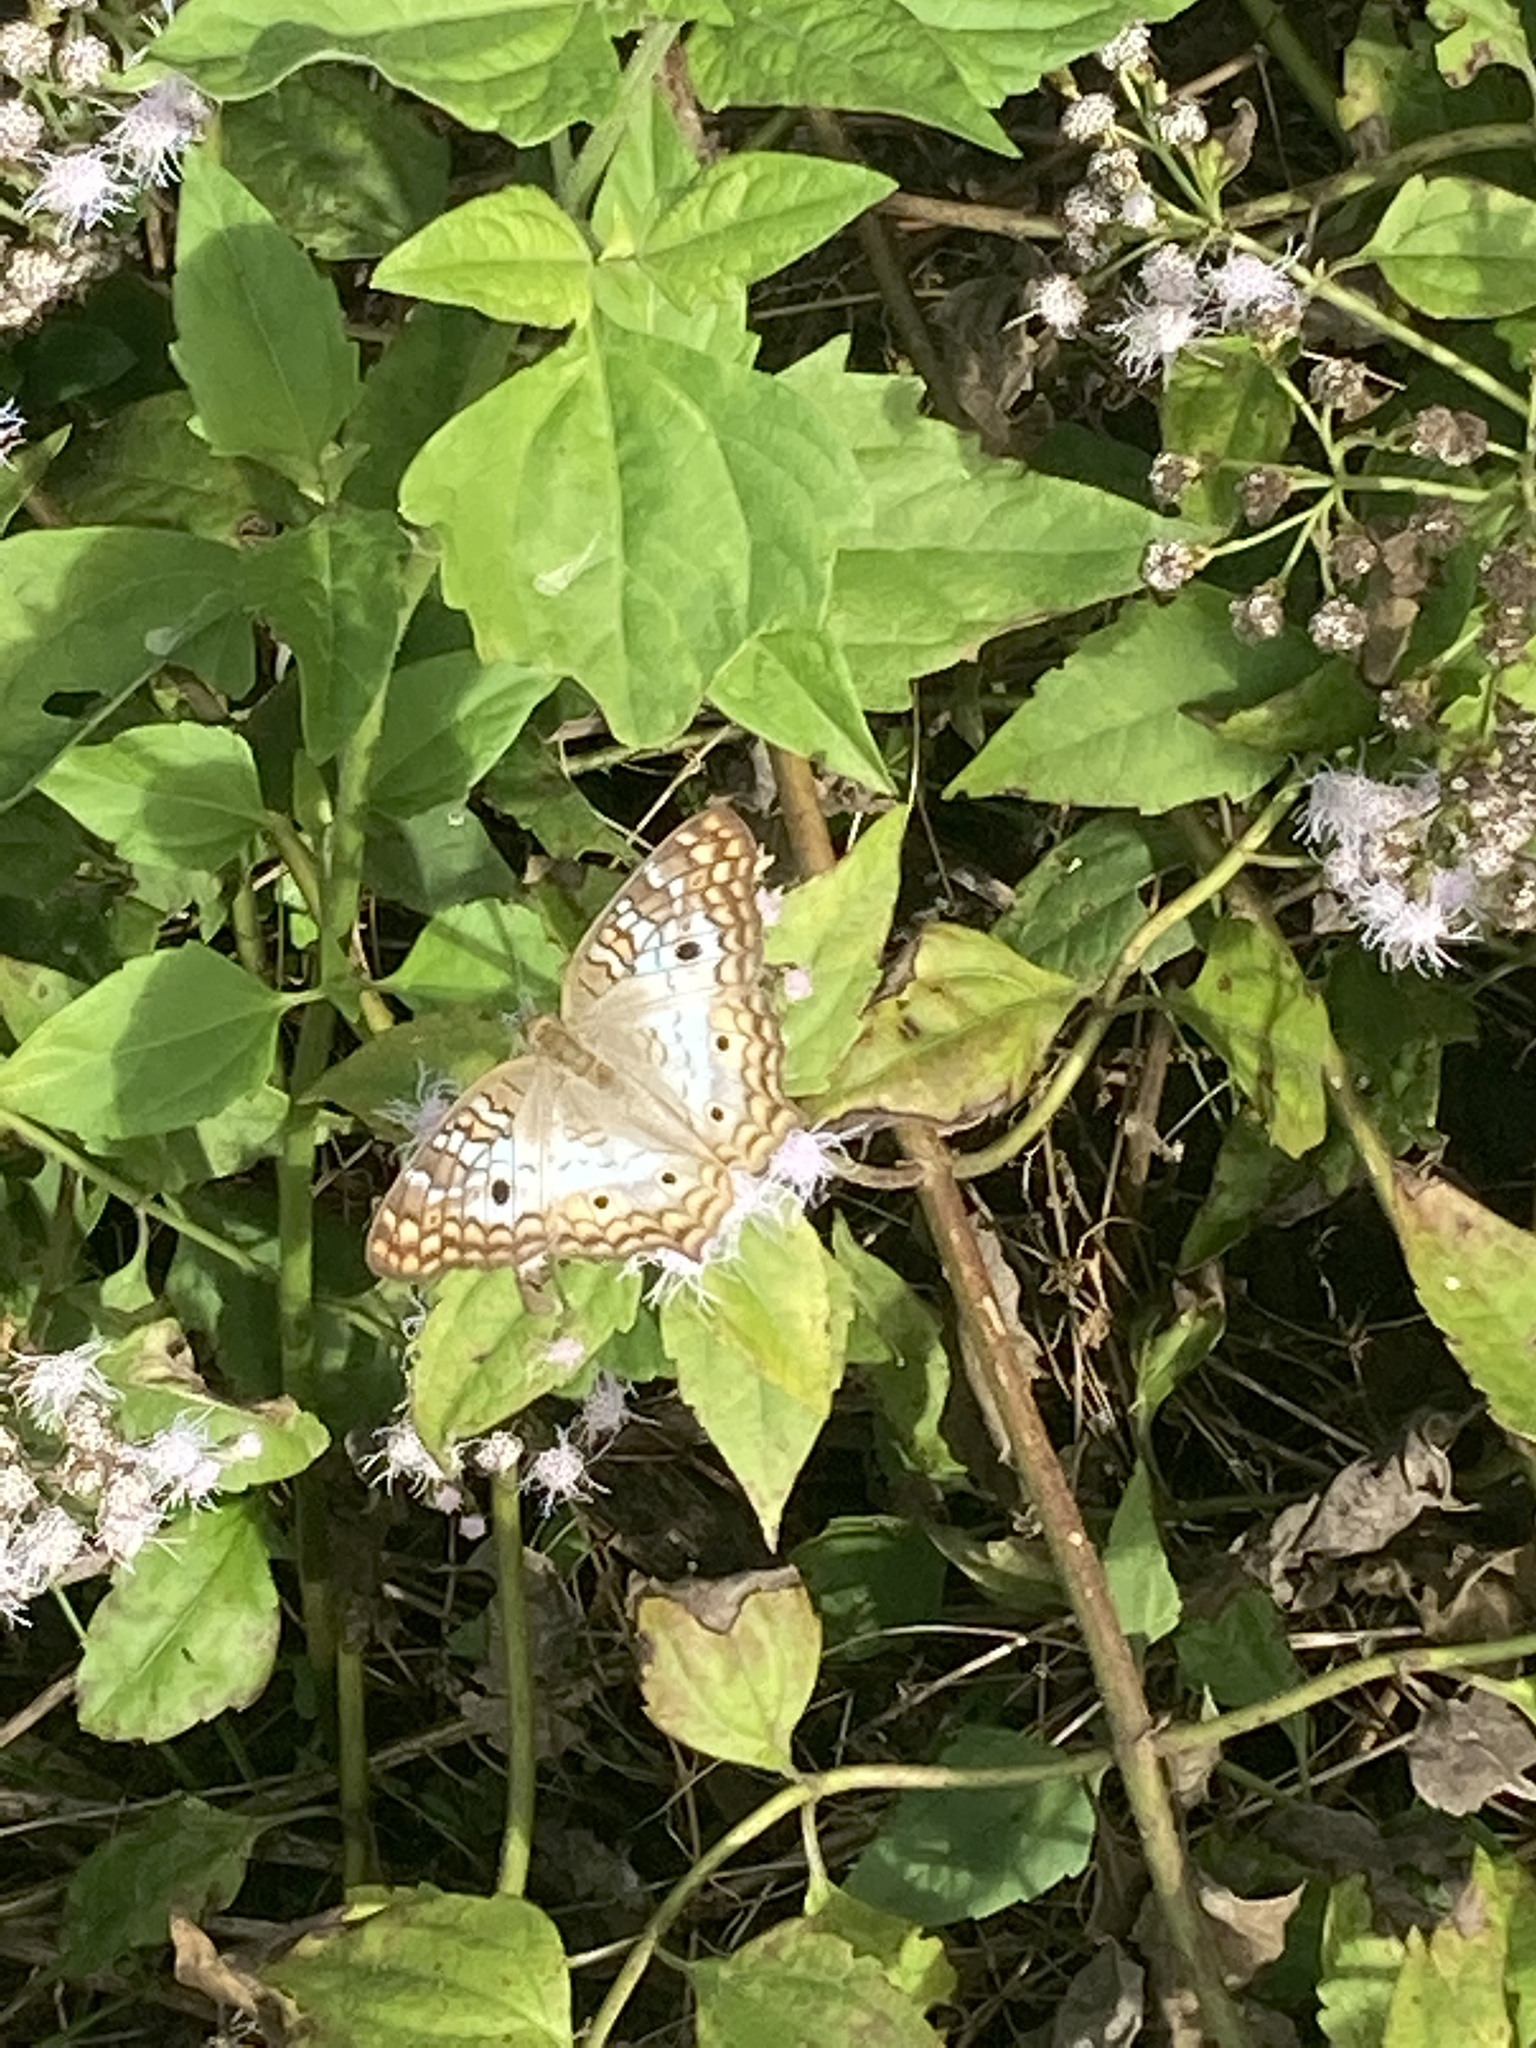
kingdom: Animalia
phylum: Arthropoda
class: Insecta
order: Lepidoptera
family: Nymphalidae
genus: Anartia
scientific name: Anartia jatrophae
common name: White peacock
